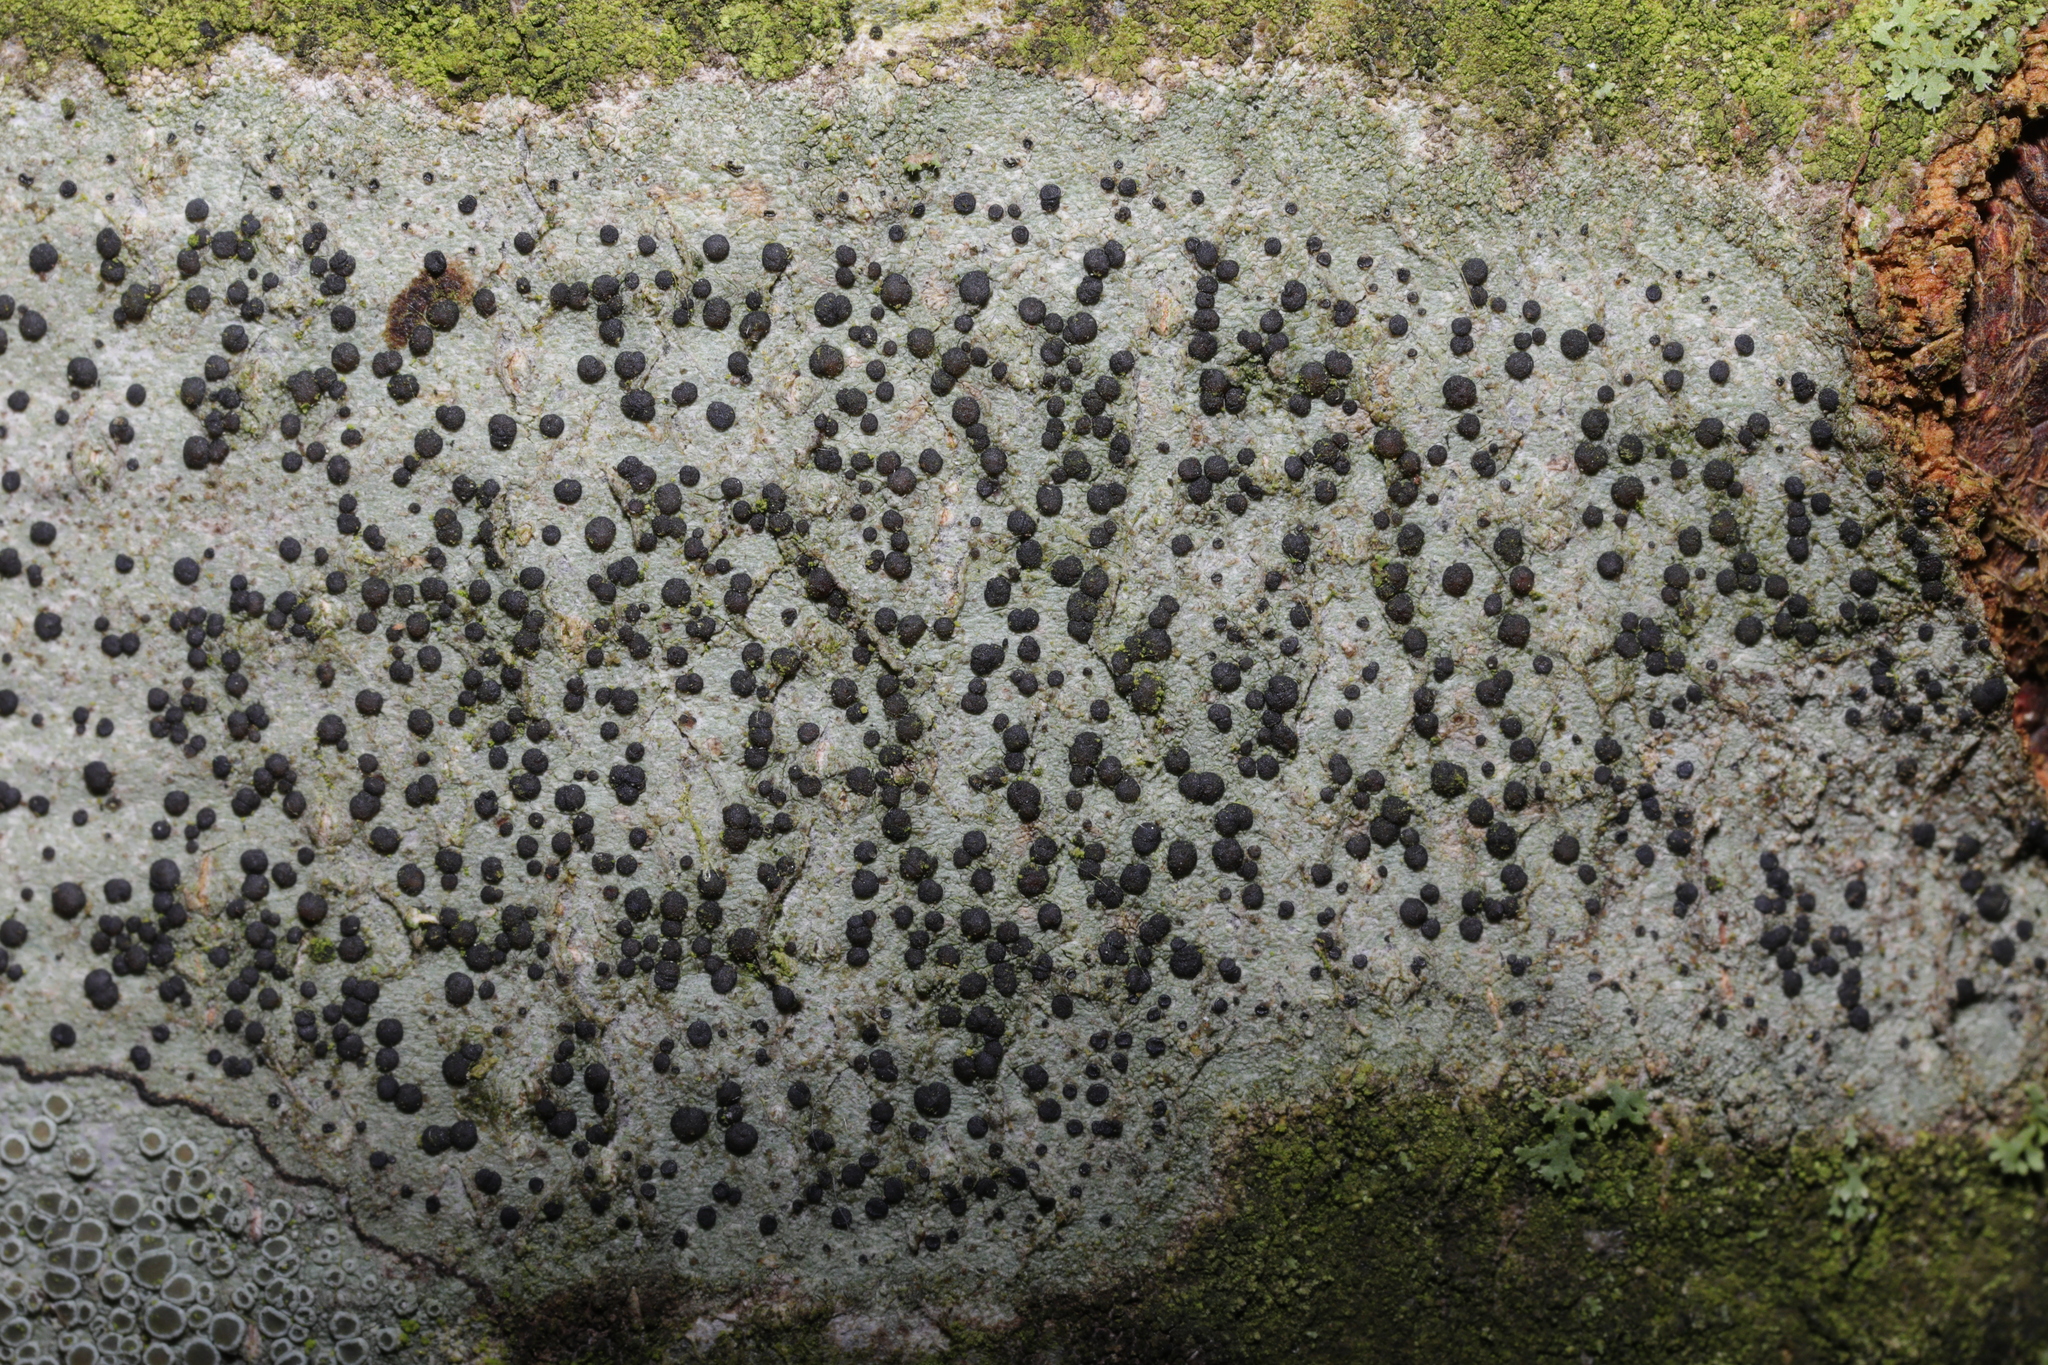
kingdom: Fungi
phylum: Ascomycota
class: Lecanoromycetes
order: Lecanorales
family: Lecanoraceae
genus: Lecidella
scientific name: Lecidella elaeochroma
